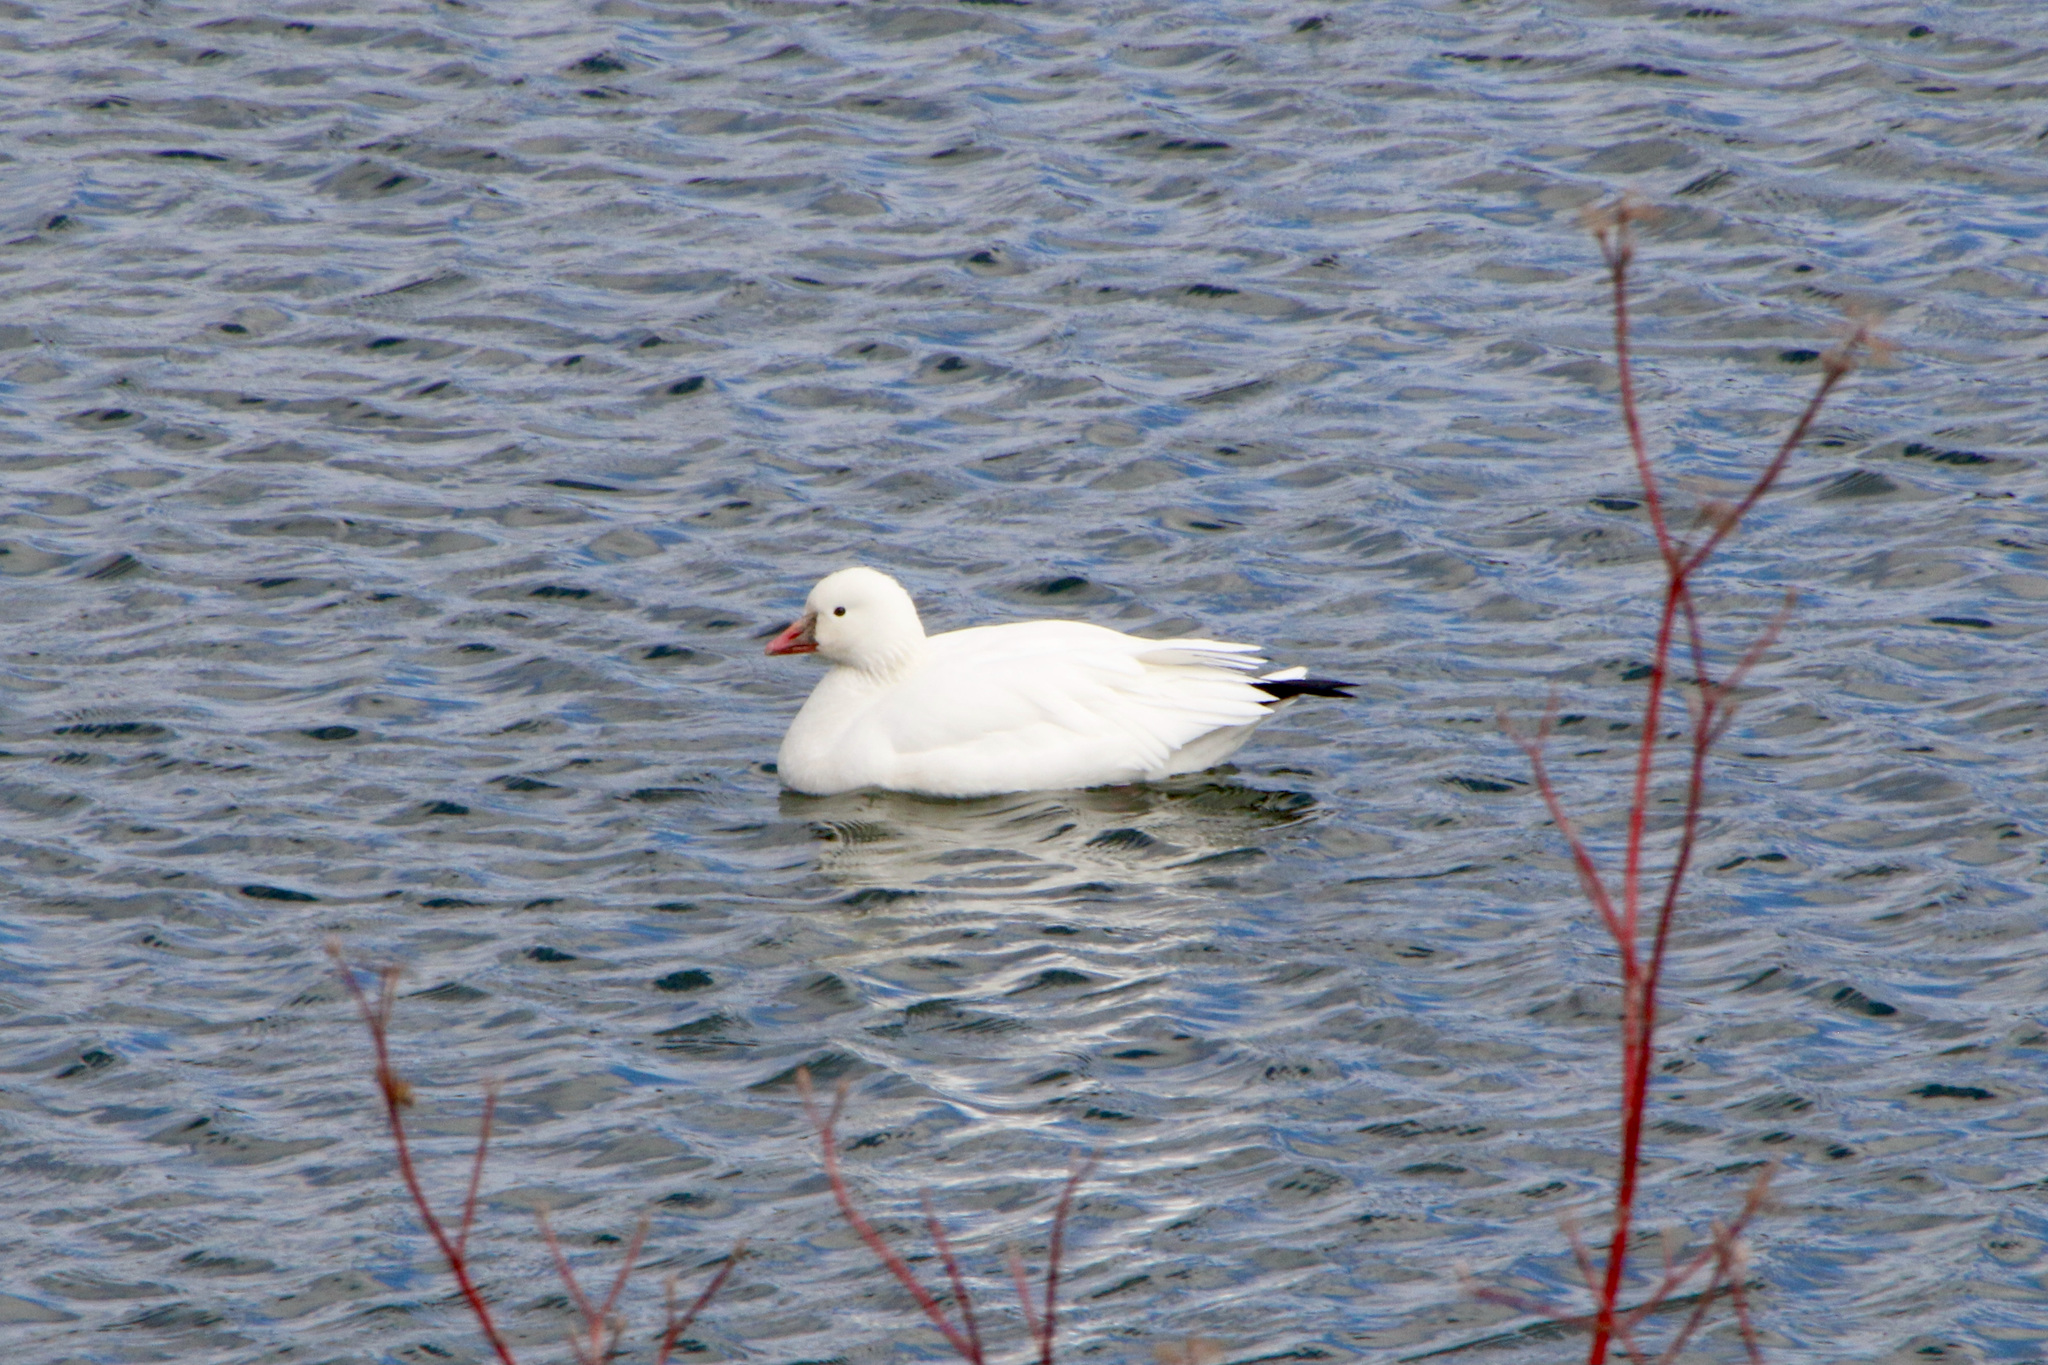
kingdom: Animalia
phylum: Chordata
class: Aves
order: Anseriformes
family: Anatidae
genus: Anser
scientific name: Anser rossii
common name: Ross's goose
